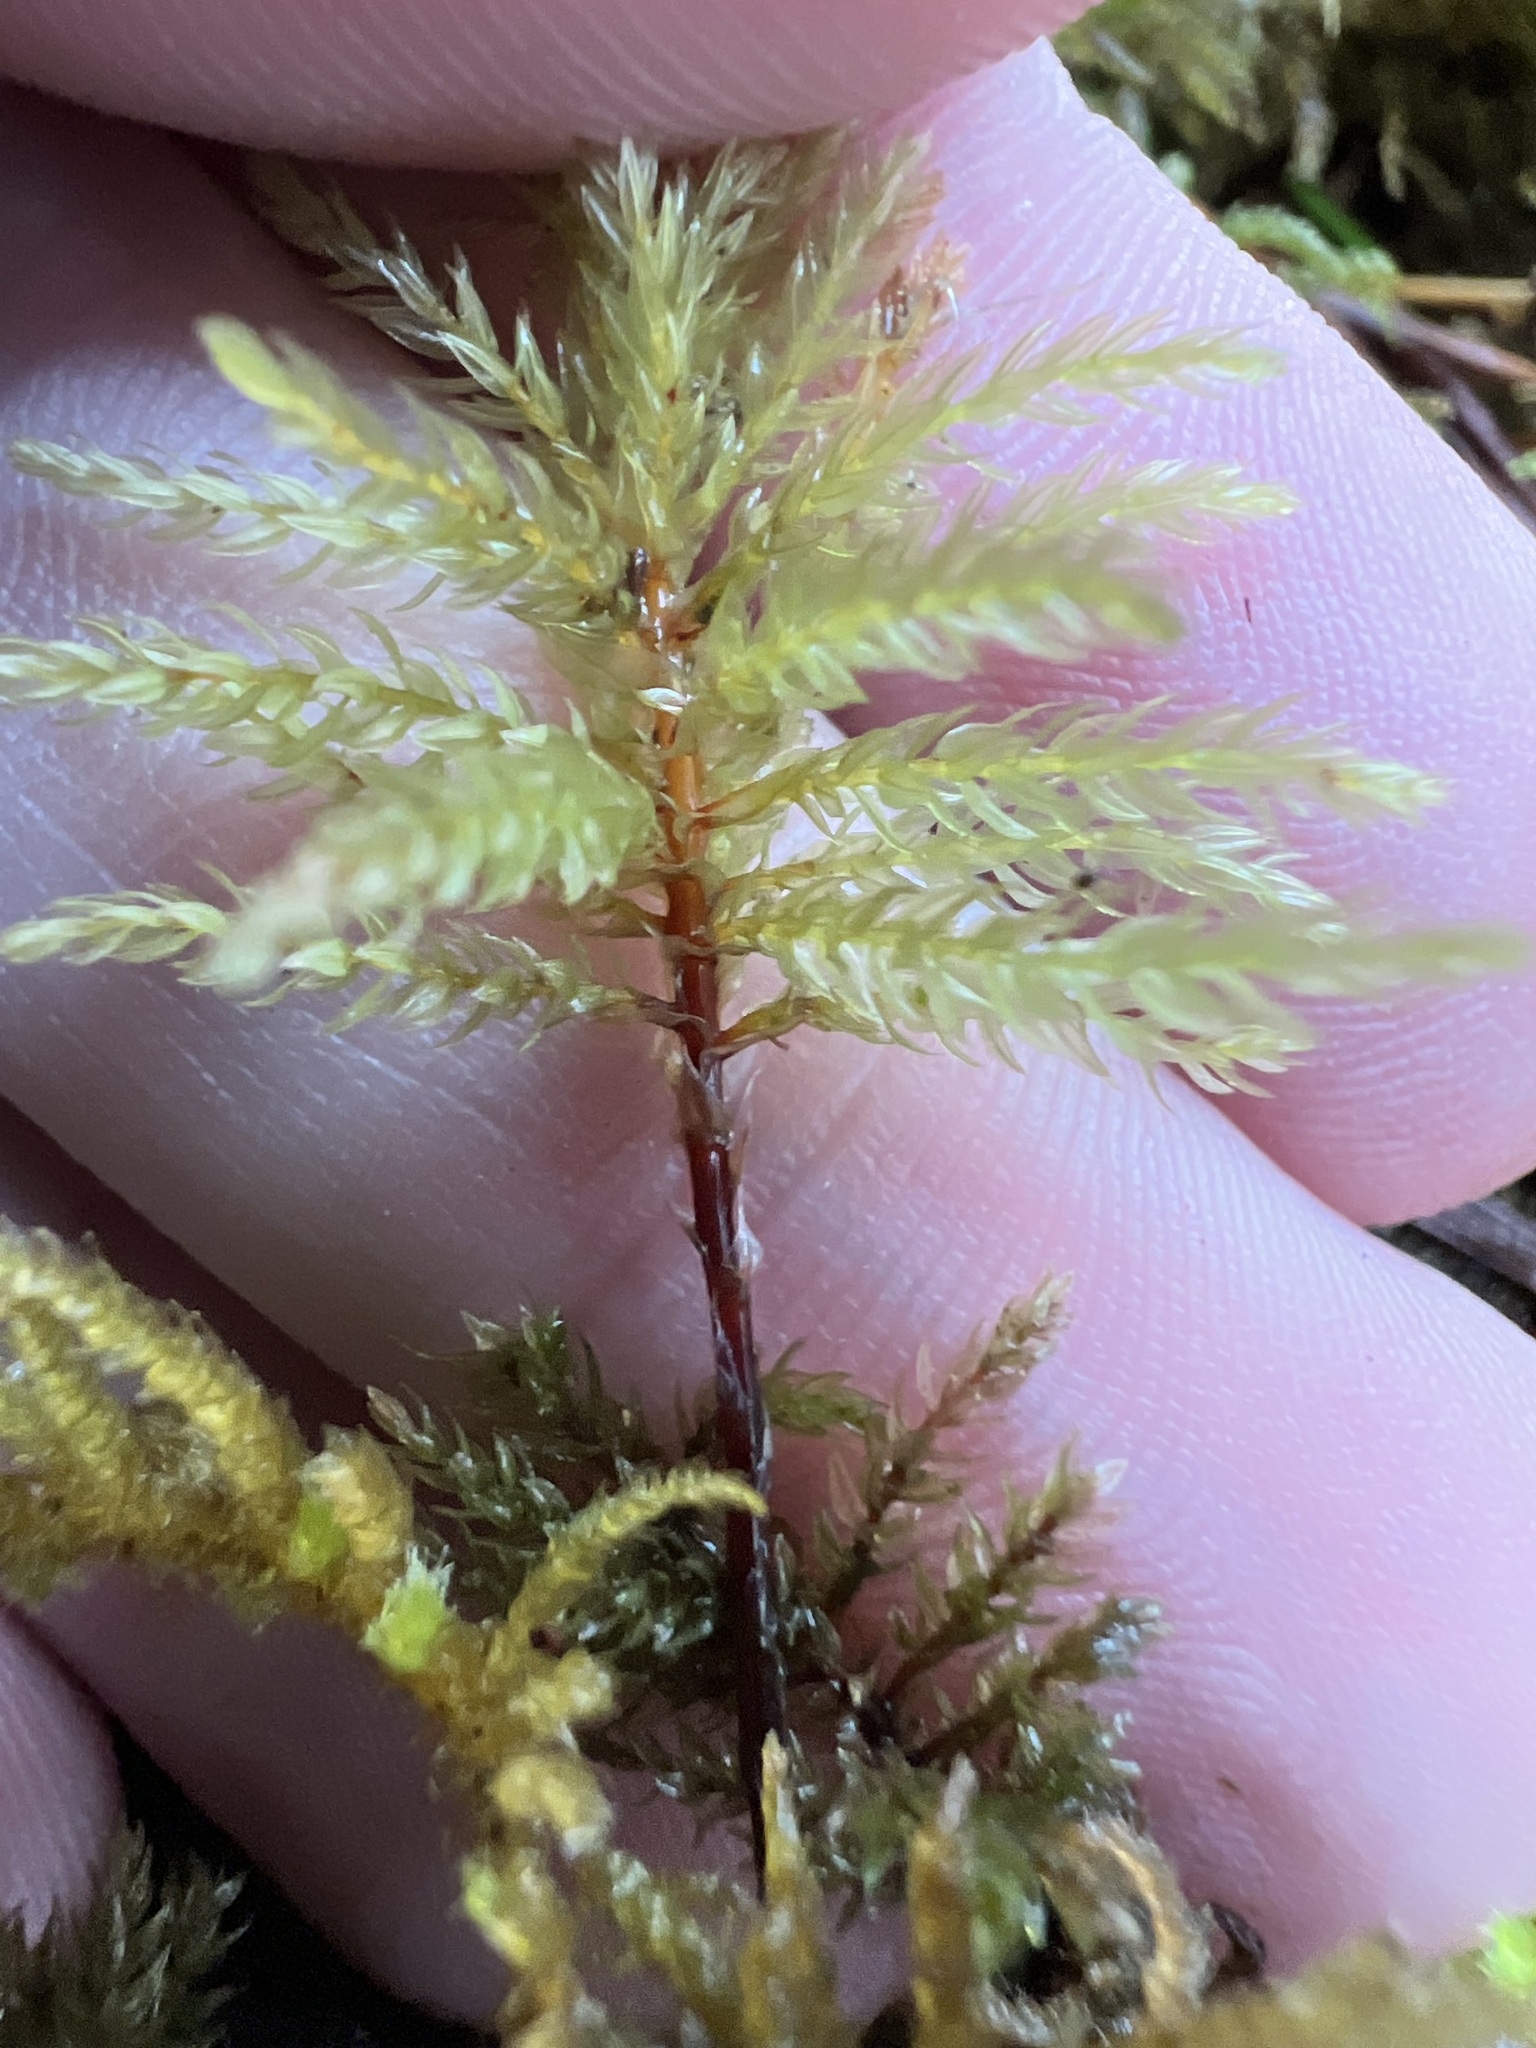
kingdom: Plantae
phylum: Bryophyta
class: Bryopsida
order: Bryales
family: Mniaceae
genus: Leucolepis
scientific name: Leucolepis acanthoneura
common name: Leucolepis umbrella moss
